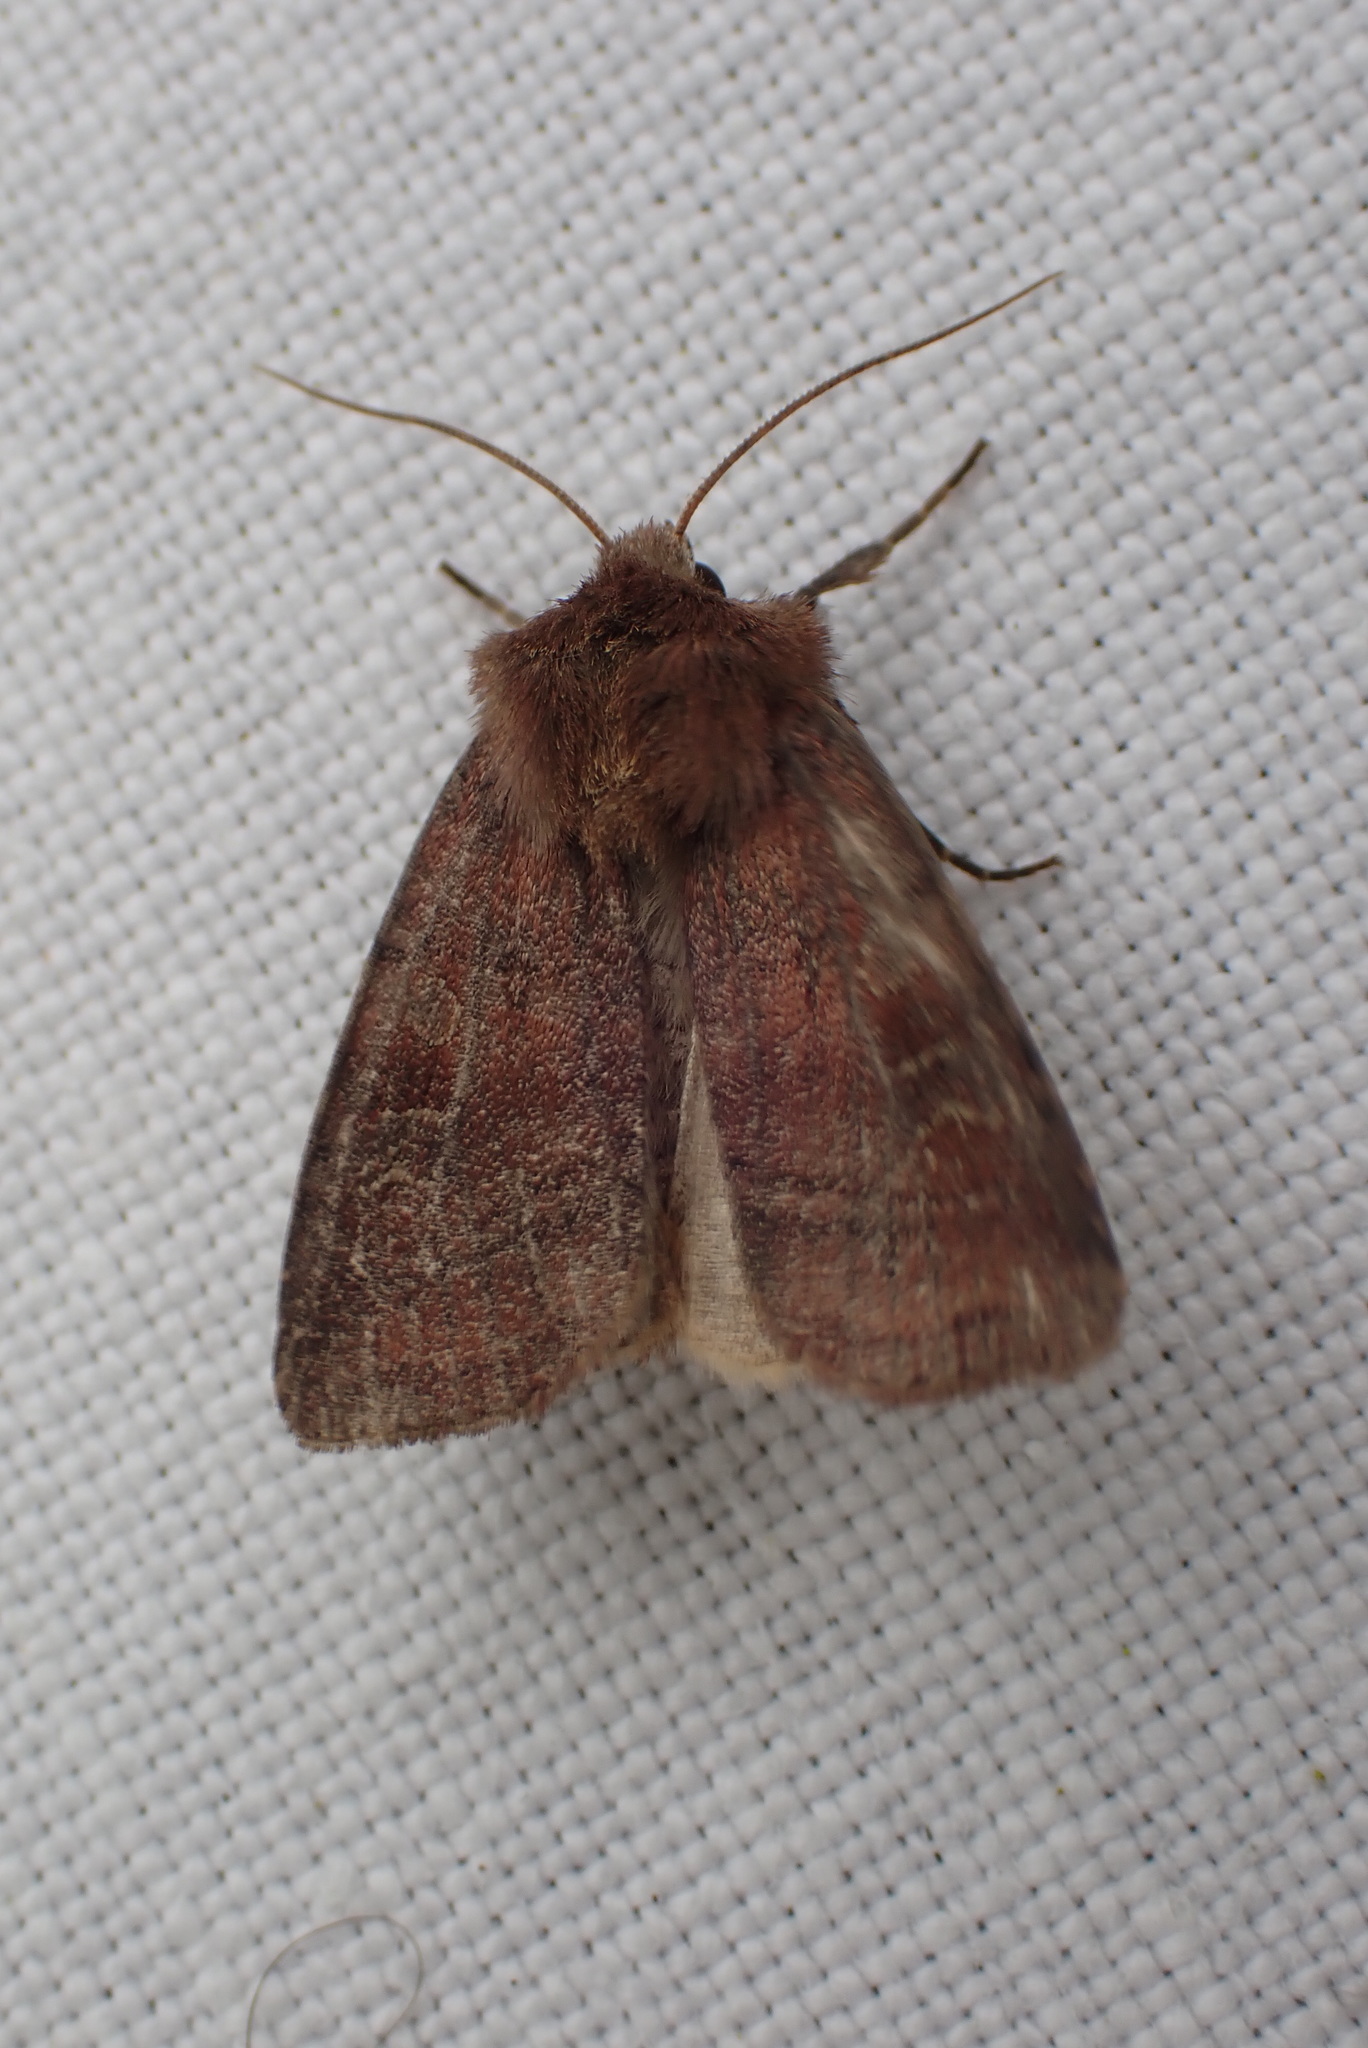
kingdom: Animalia
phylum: Arthropoda
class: Insecta
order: Lepidoptera
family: Noctuidae
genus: Diarsia
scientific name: Diarsia rubi
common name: Small square-spot
